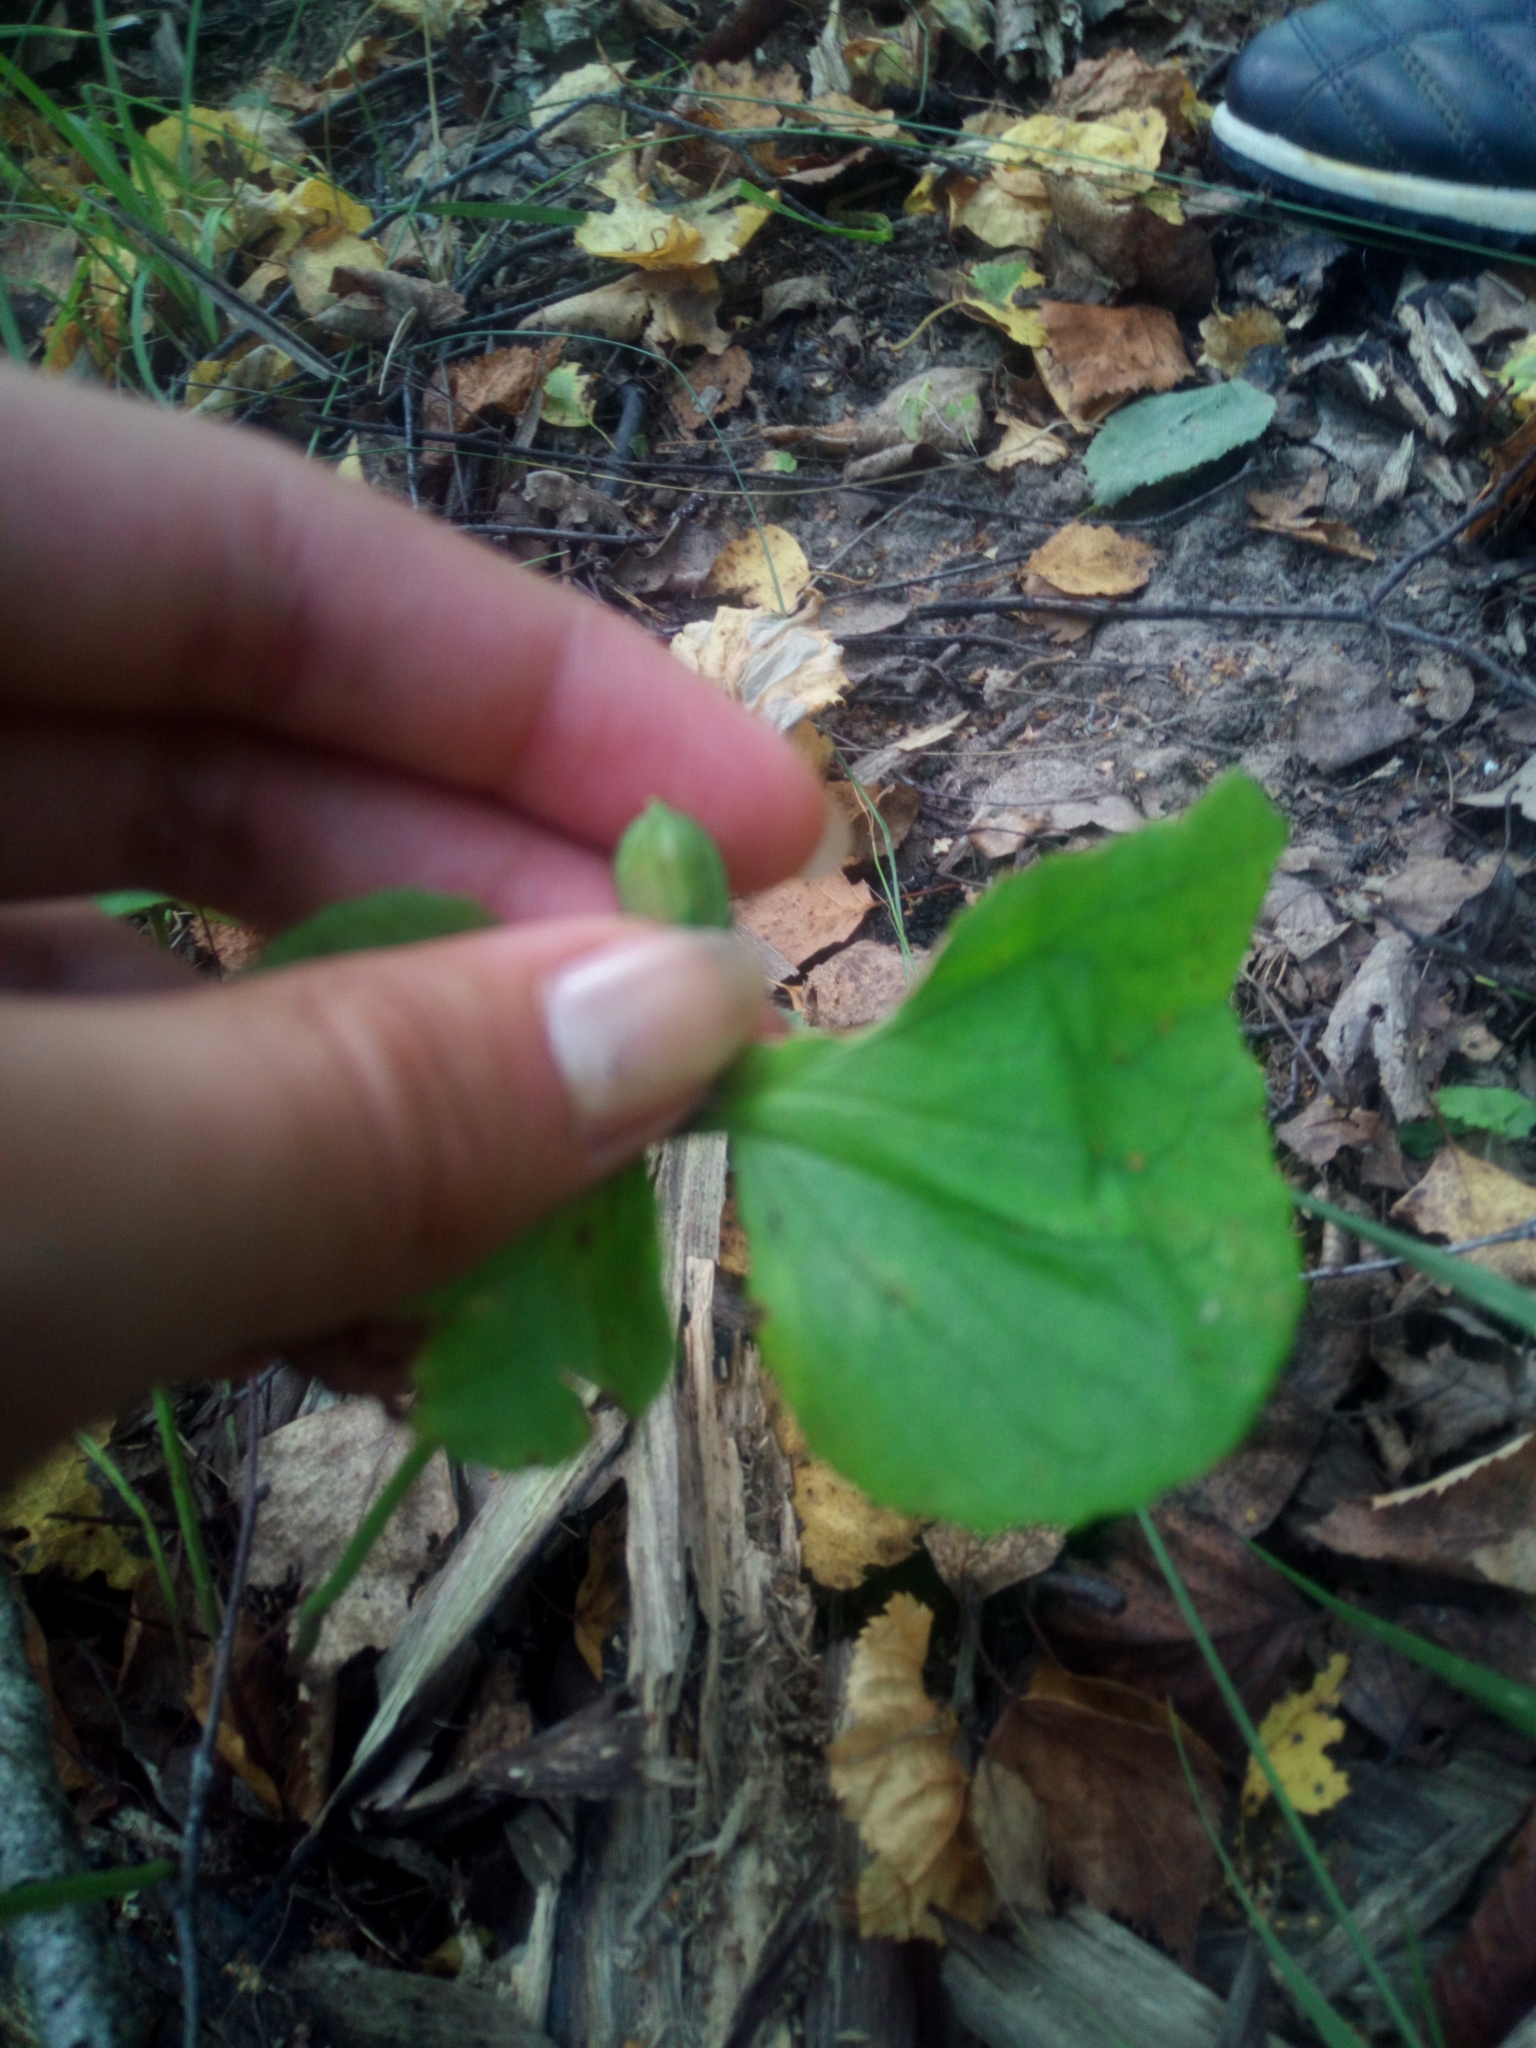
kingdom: Plantae
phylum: Tracheophyta
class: Magnoliopsida
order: Malpighiales
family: Violaceae
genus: Viola
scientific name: Viola mirabilis
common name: Wonder violet
